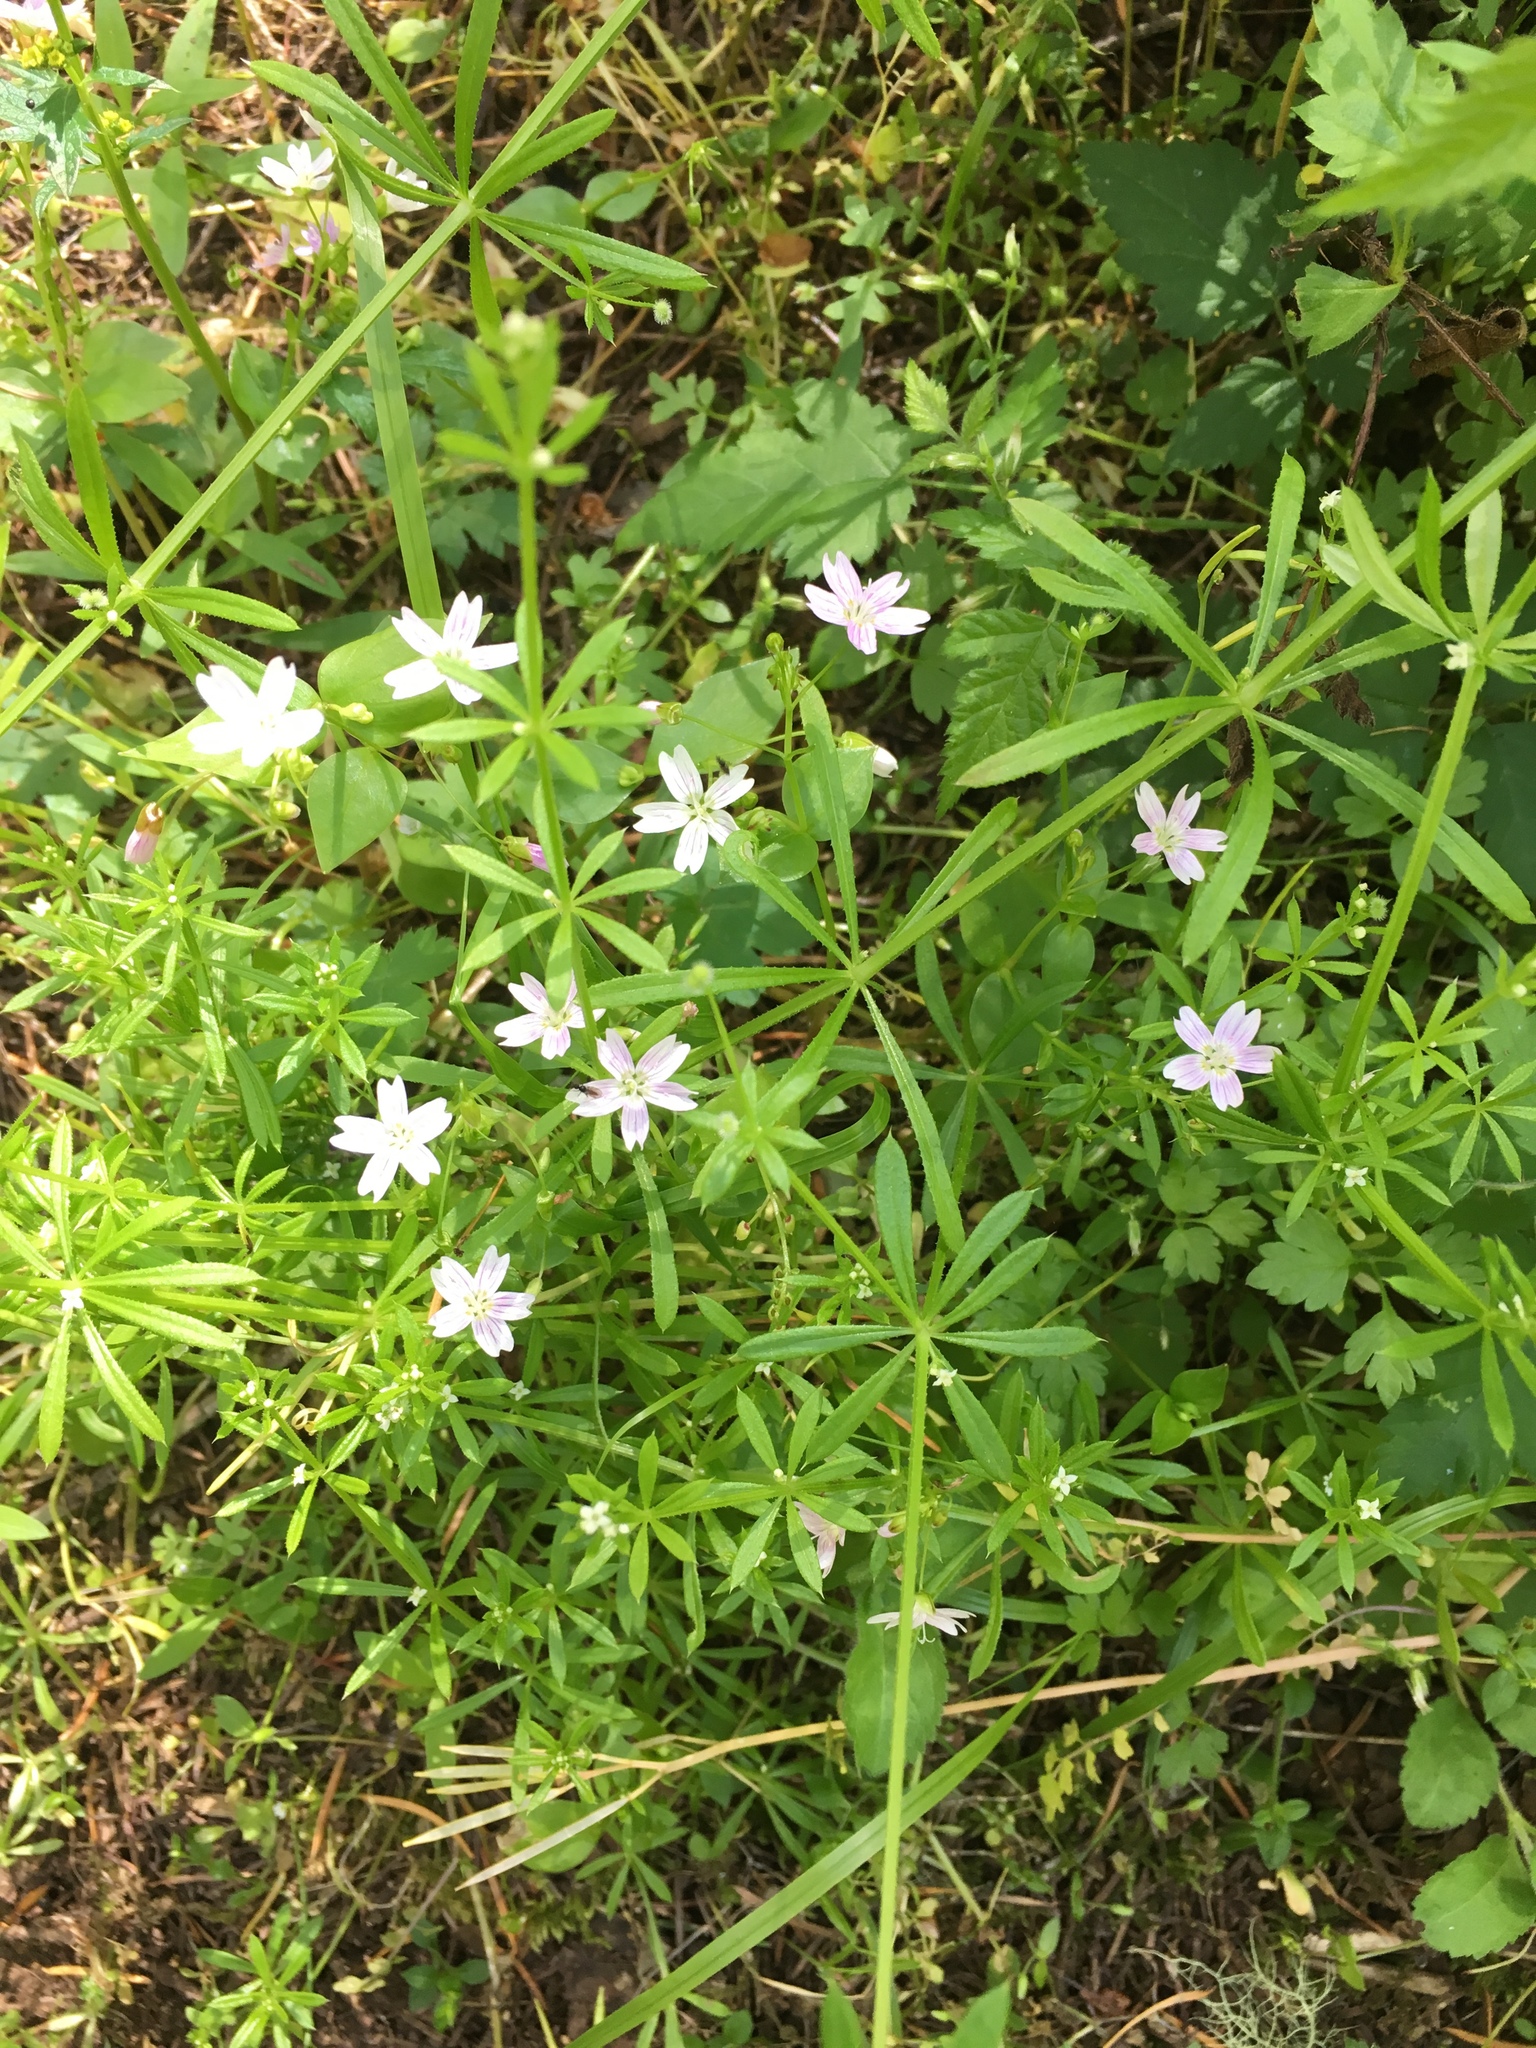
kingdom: Plantae
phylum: Tracheophyta
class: Magnoliopsida
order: Gentianales
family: Rubiaceae
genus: Galium
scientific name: Galium aparine
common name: Cleavers
